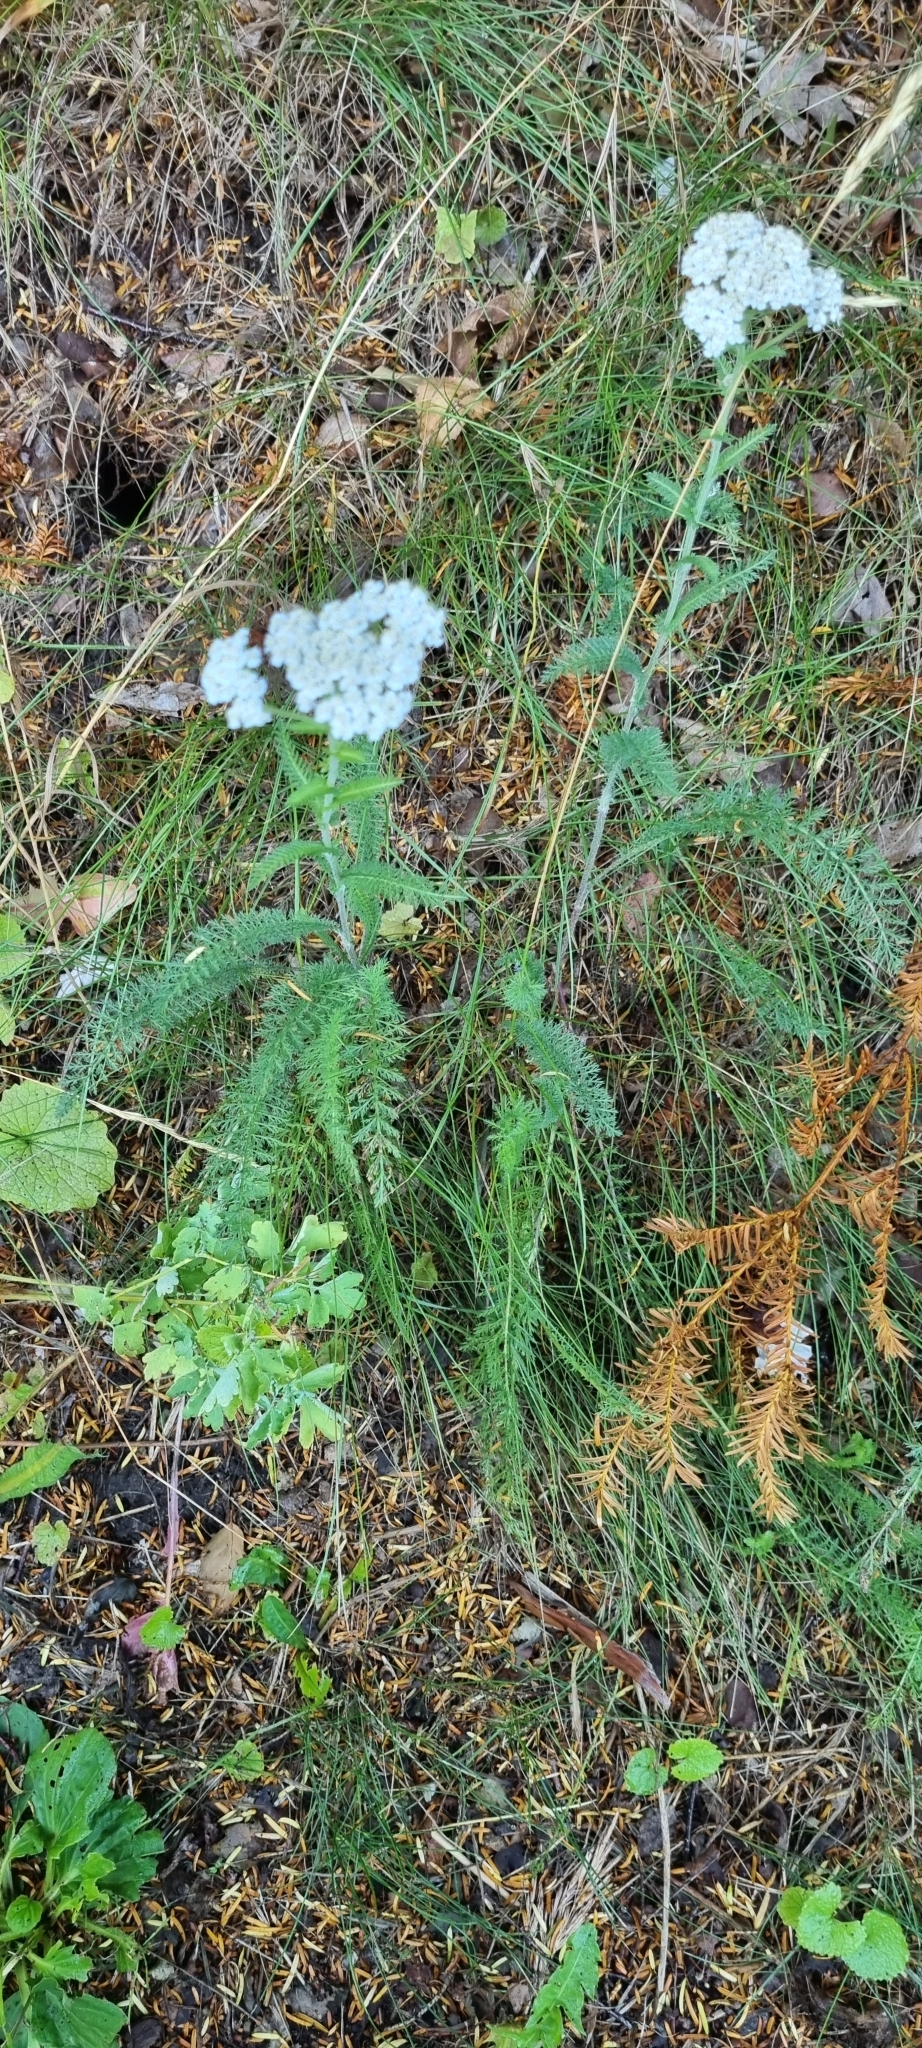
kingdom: Plantae
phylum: Tracheophyta
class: Magnoliopsida
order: Asterales
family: Asteraceae
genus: Achillea
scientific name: Achillea millefolium
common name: Yarrow
